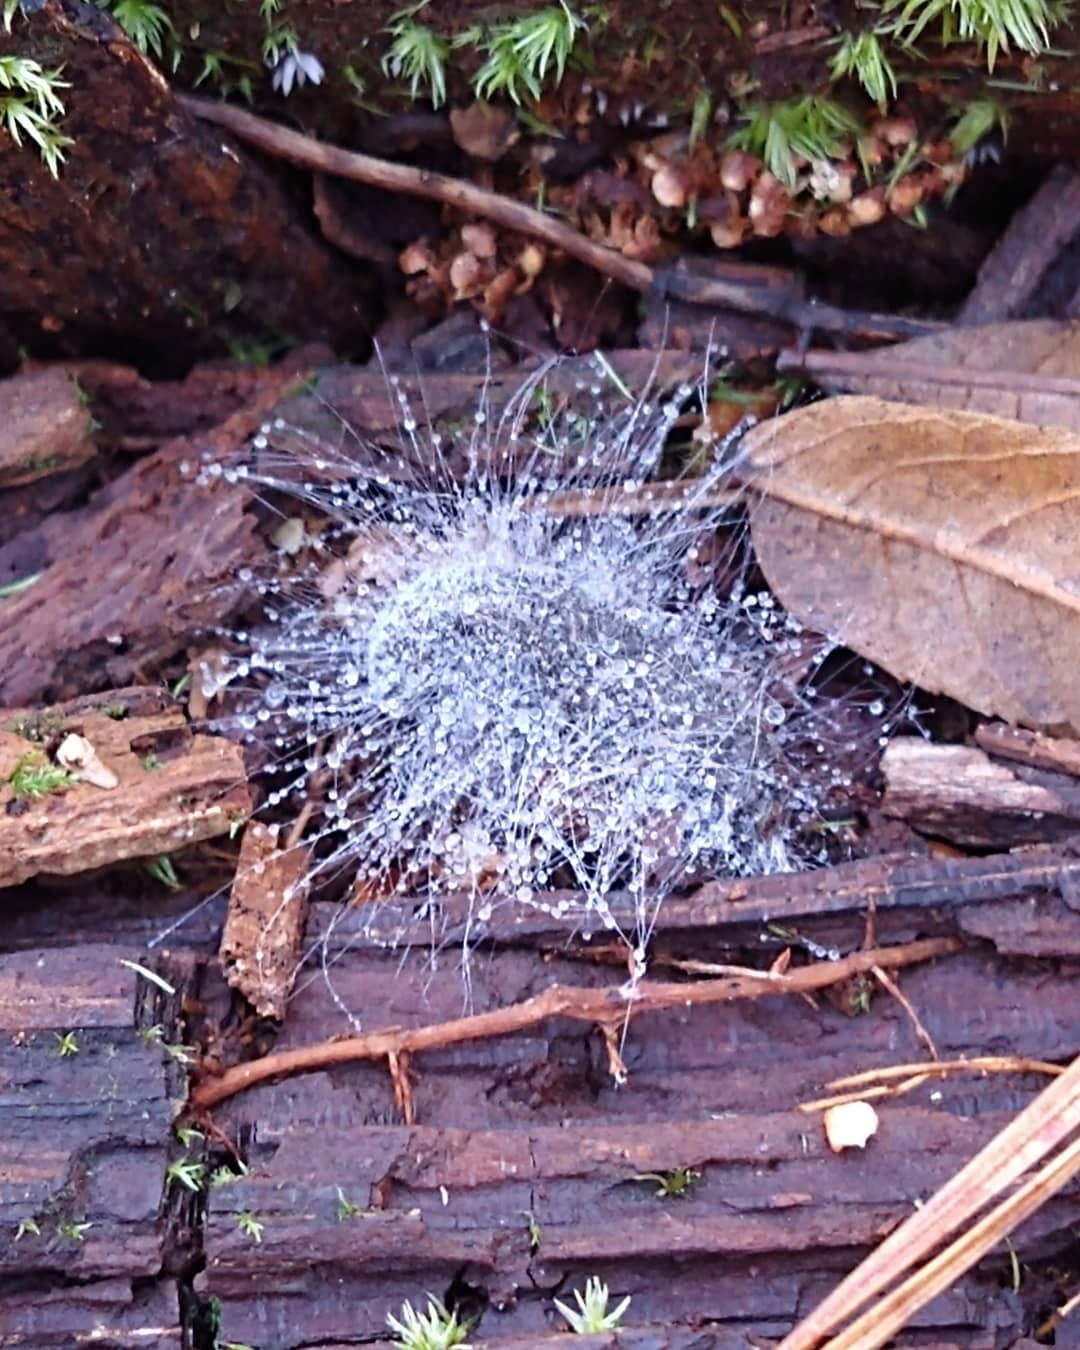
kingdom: Fungi
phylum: Mucoromycota
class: Mucoromycetes
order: Mucorales
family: Phycomycetaceae
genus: Spinellus
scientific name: Spinellus fusiger
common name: Bonnet mould
